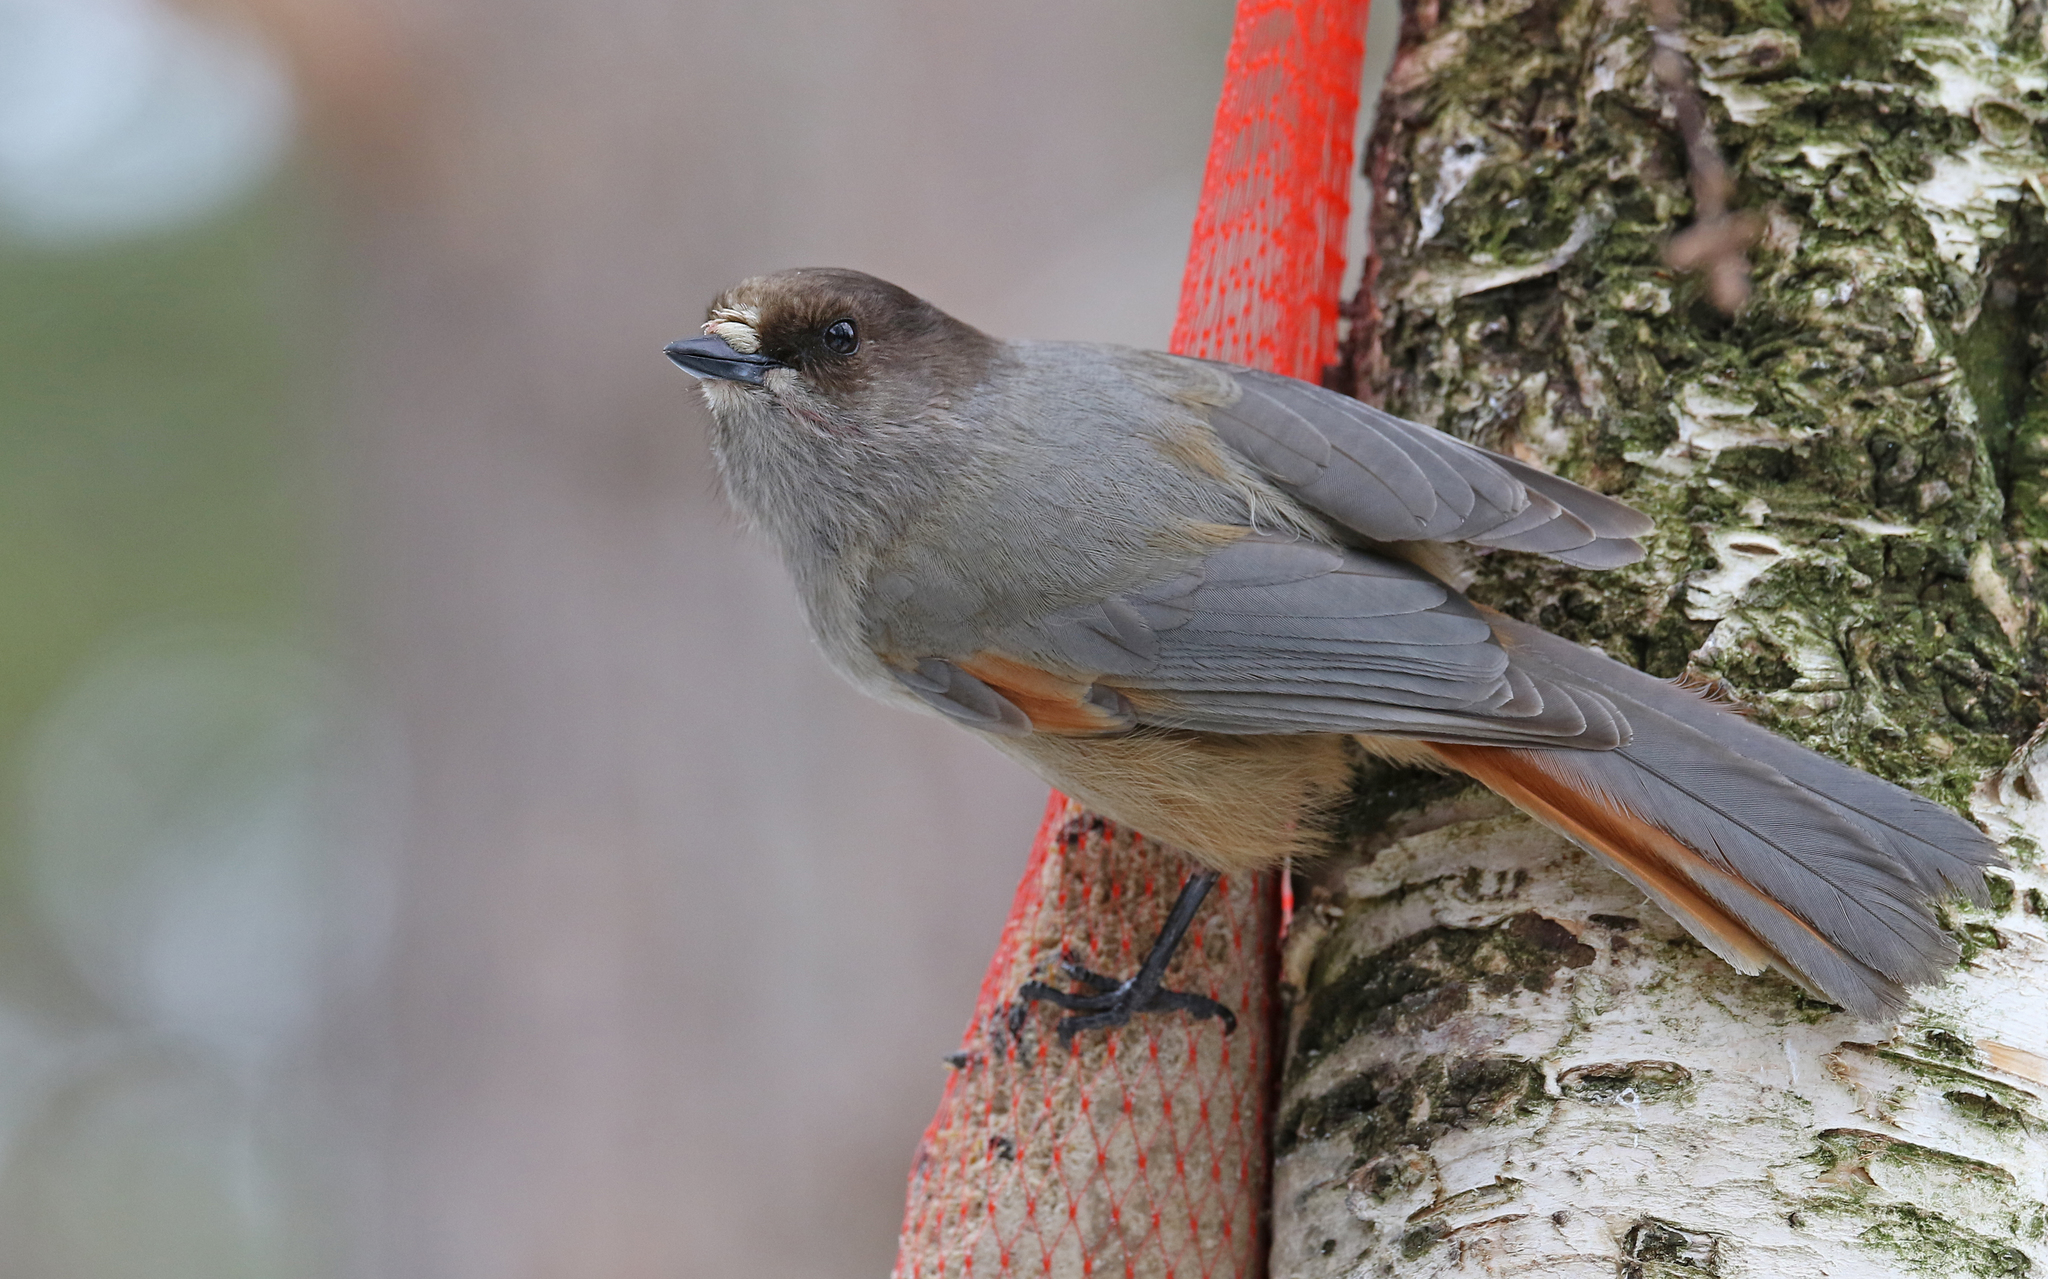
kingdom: Animalia
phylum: Chordata
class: Aves
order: Passeriformes
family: Corvidae
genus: Perisoreus
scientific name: Perisoreus infaustus
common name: Siberian jay
